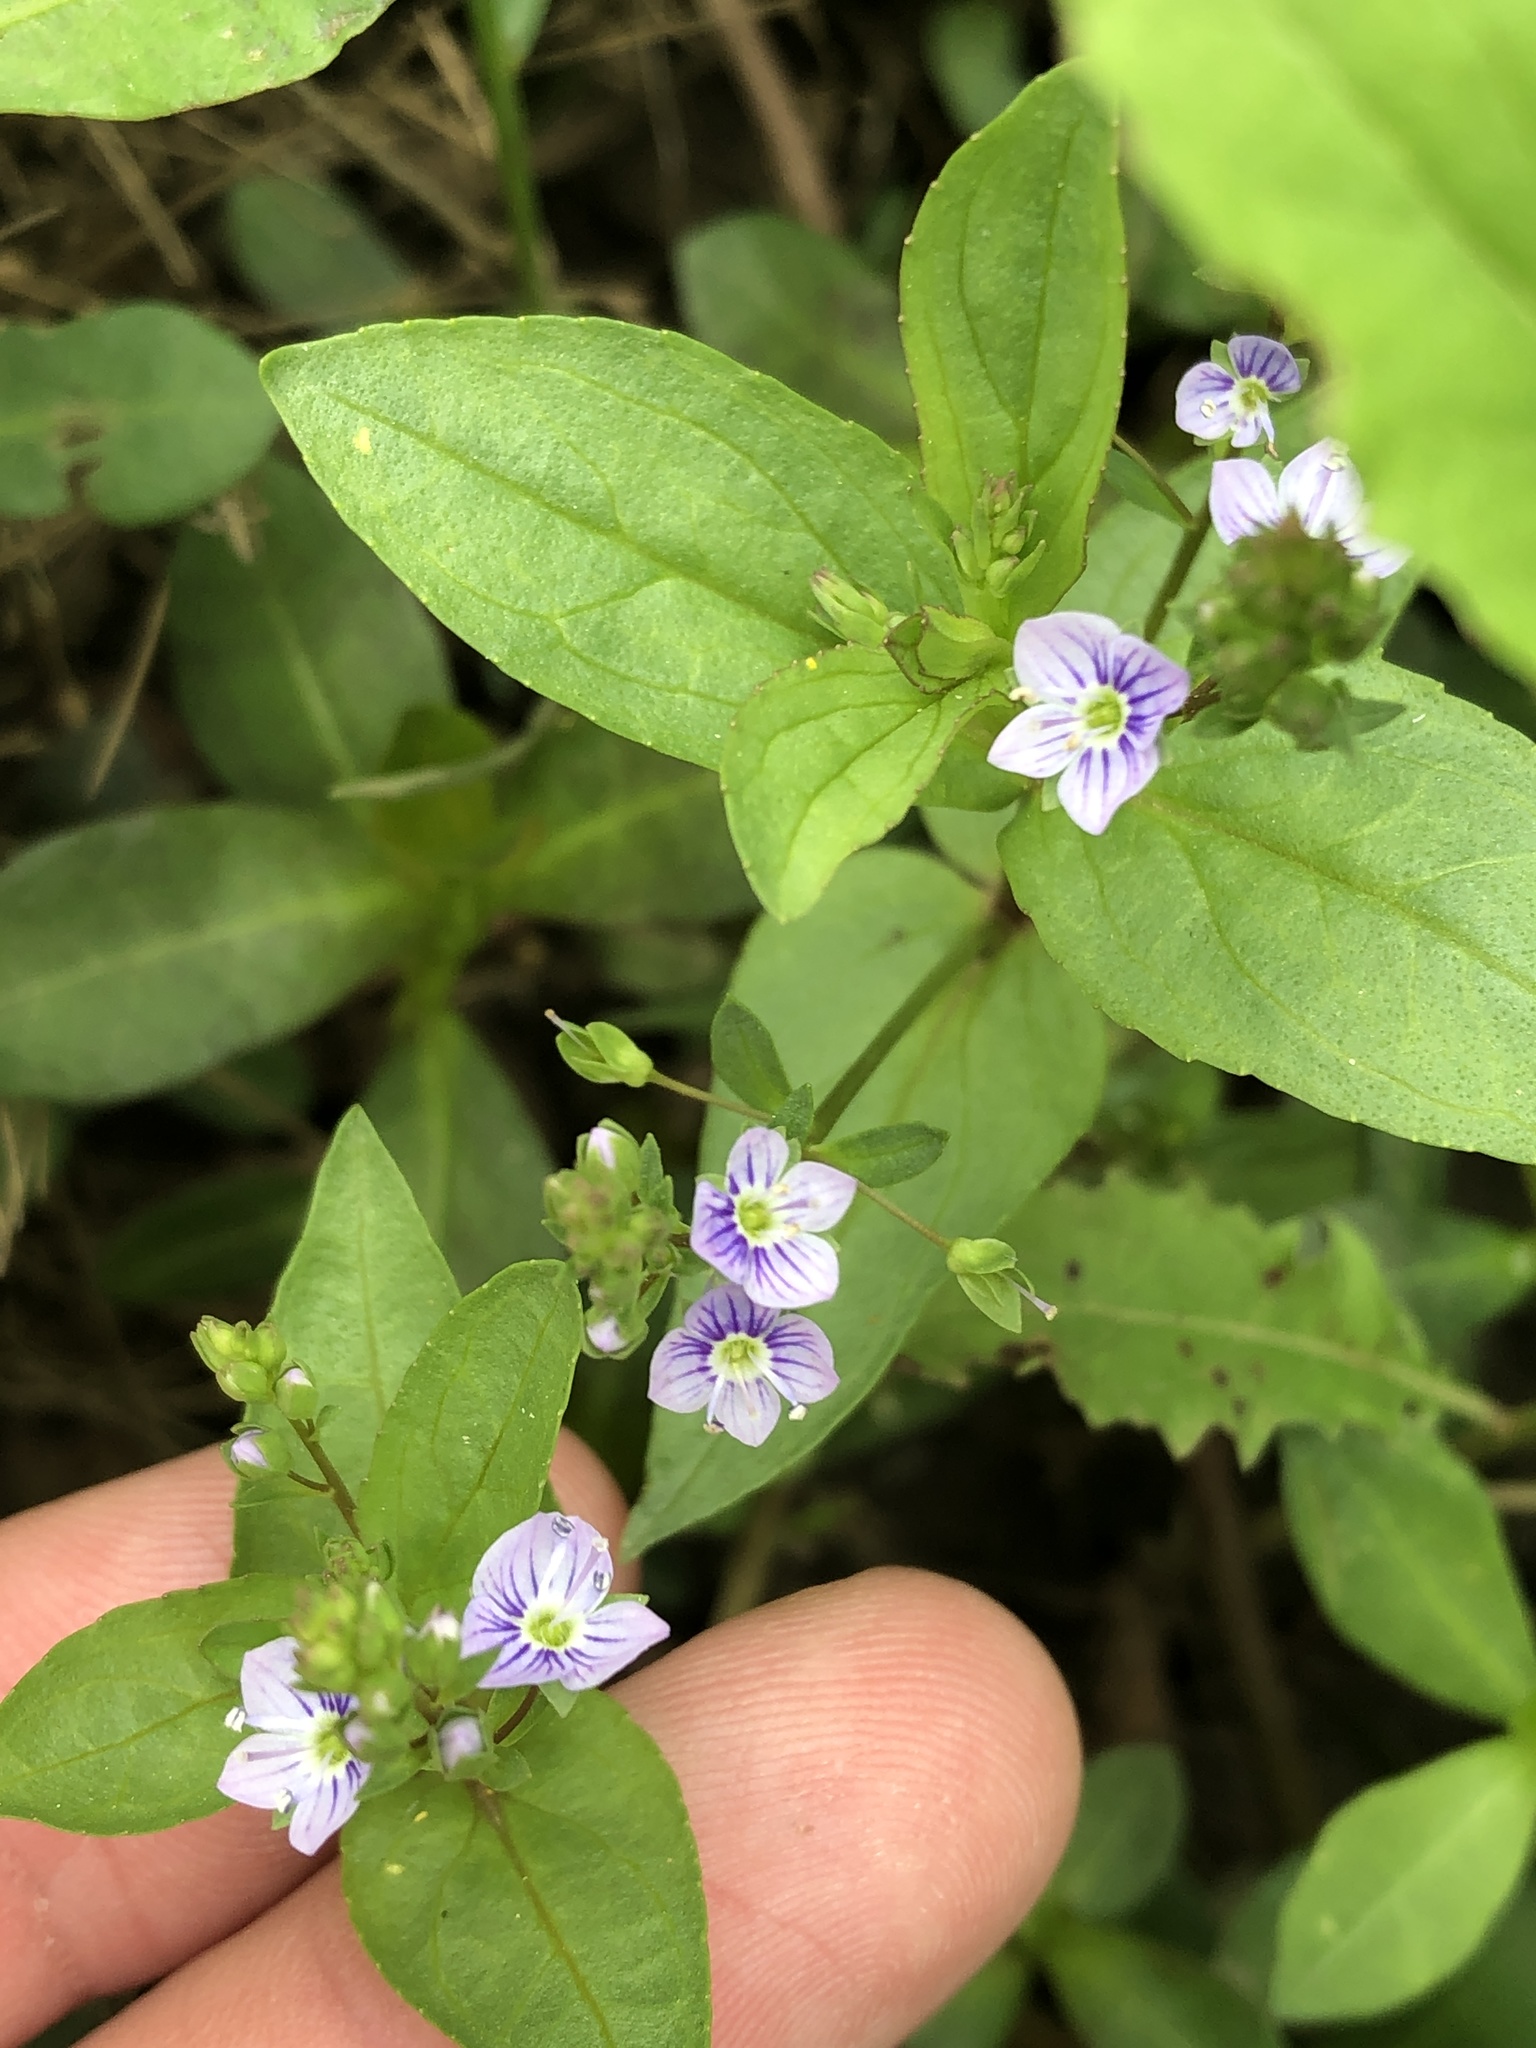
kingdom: Plantae
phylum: Tracheophyta
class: Magnoliopsida
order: Lamiales
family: Plantaginaceae
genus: Veronica
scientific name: Veronica anagallis-aquatica
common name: Water speedwell
